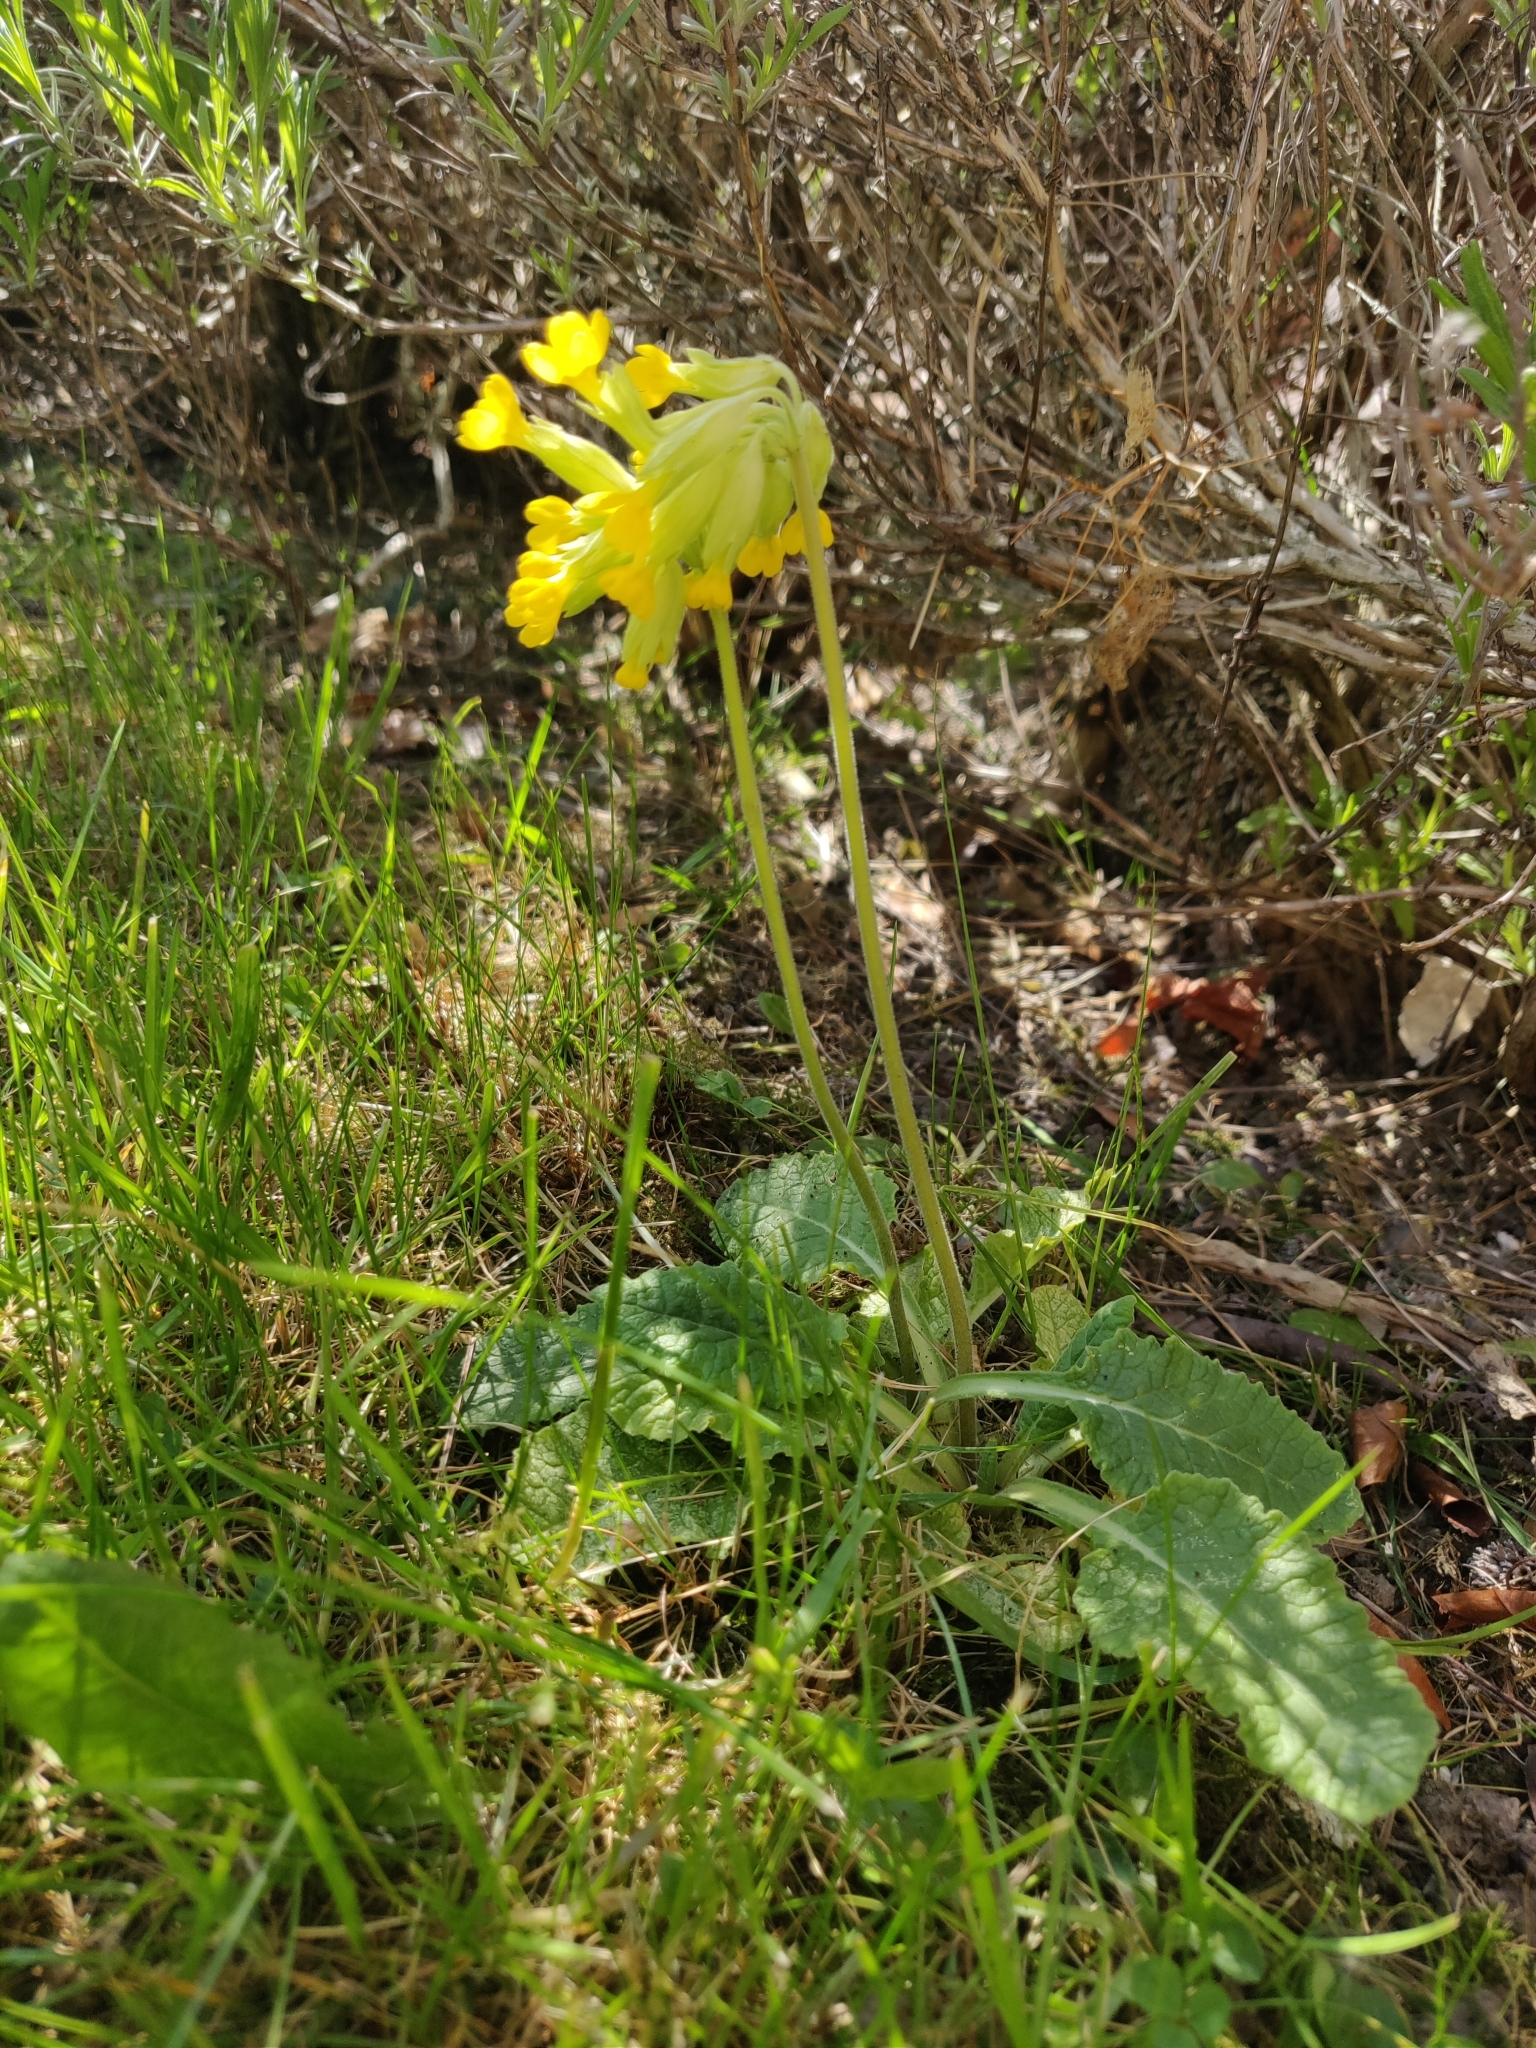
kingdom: Plantae
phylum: Tracheophyta
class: Magnoliopsida
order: Ericales
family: Primulaceae
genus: Primula
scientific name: Primula veris
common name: Cowslip
